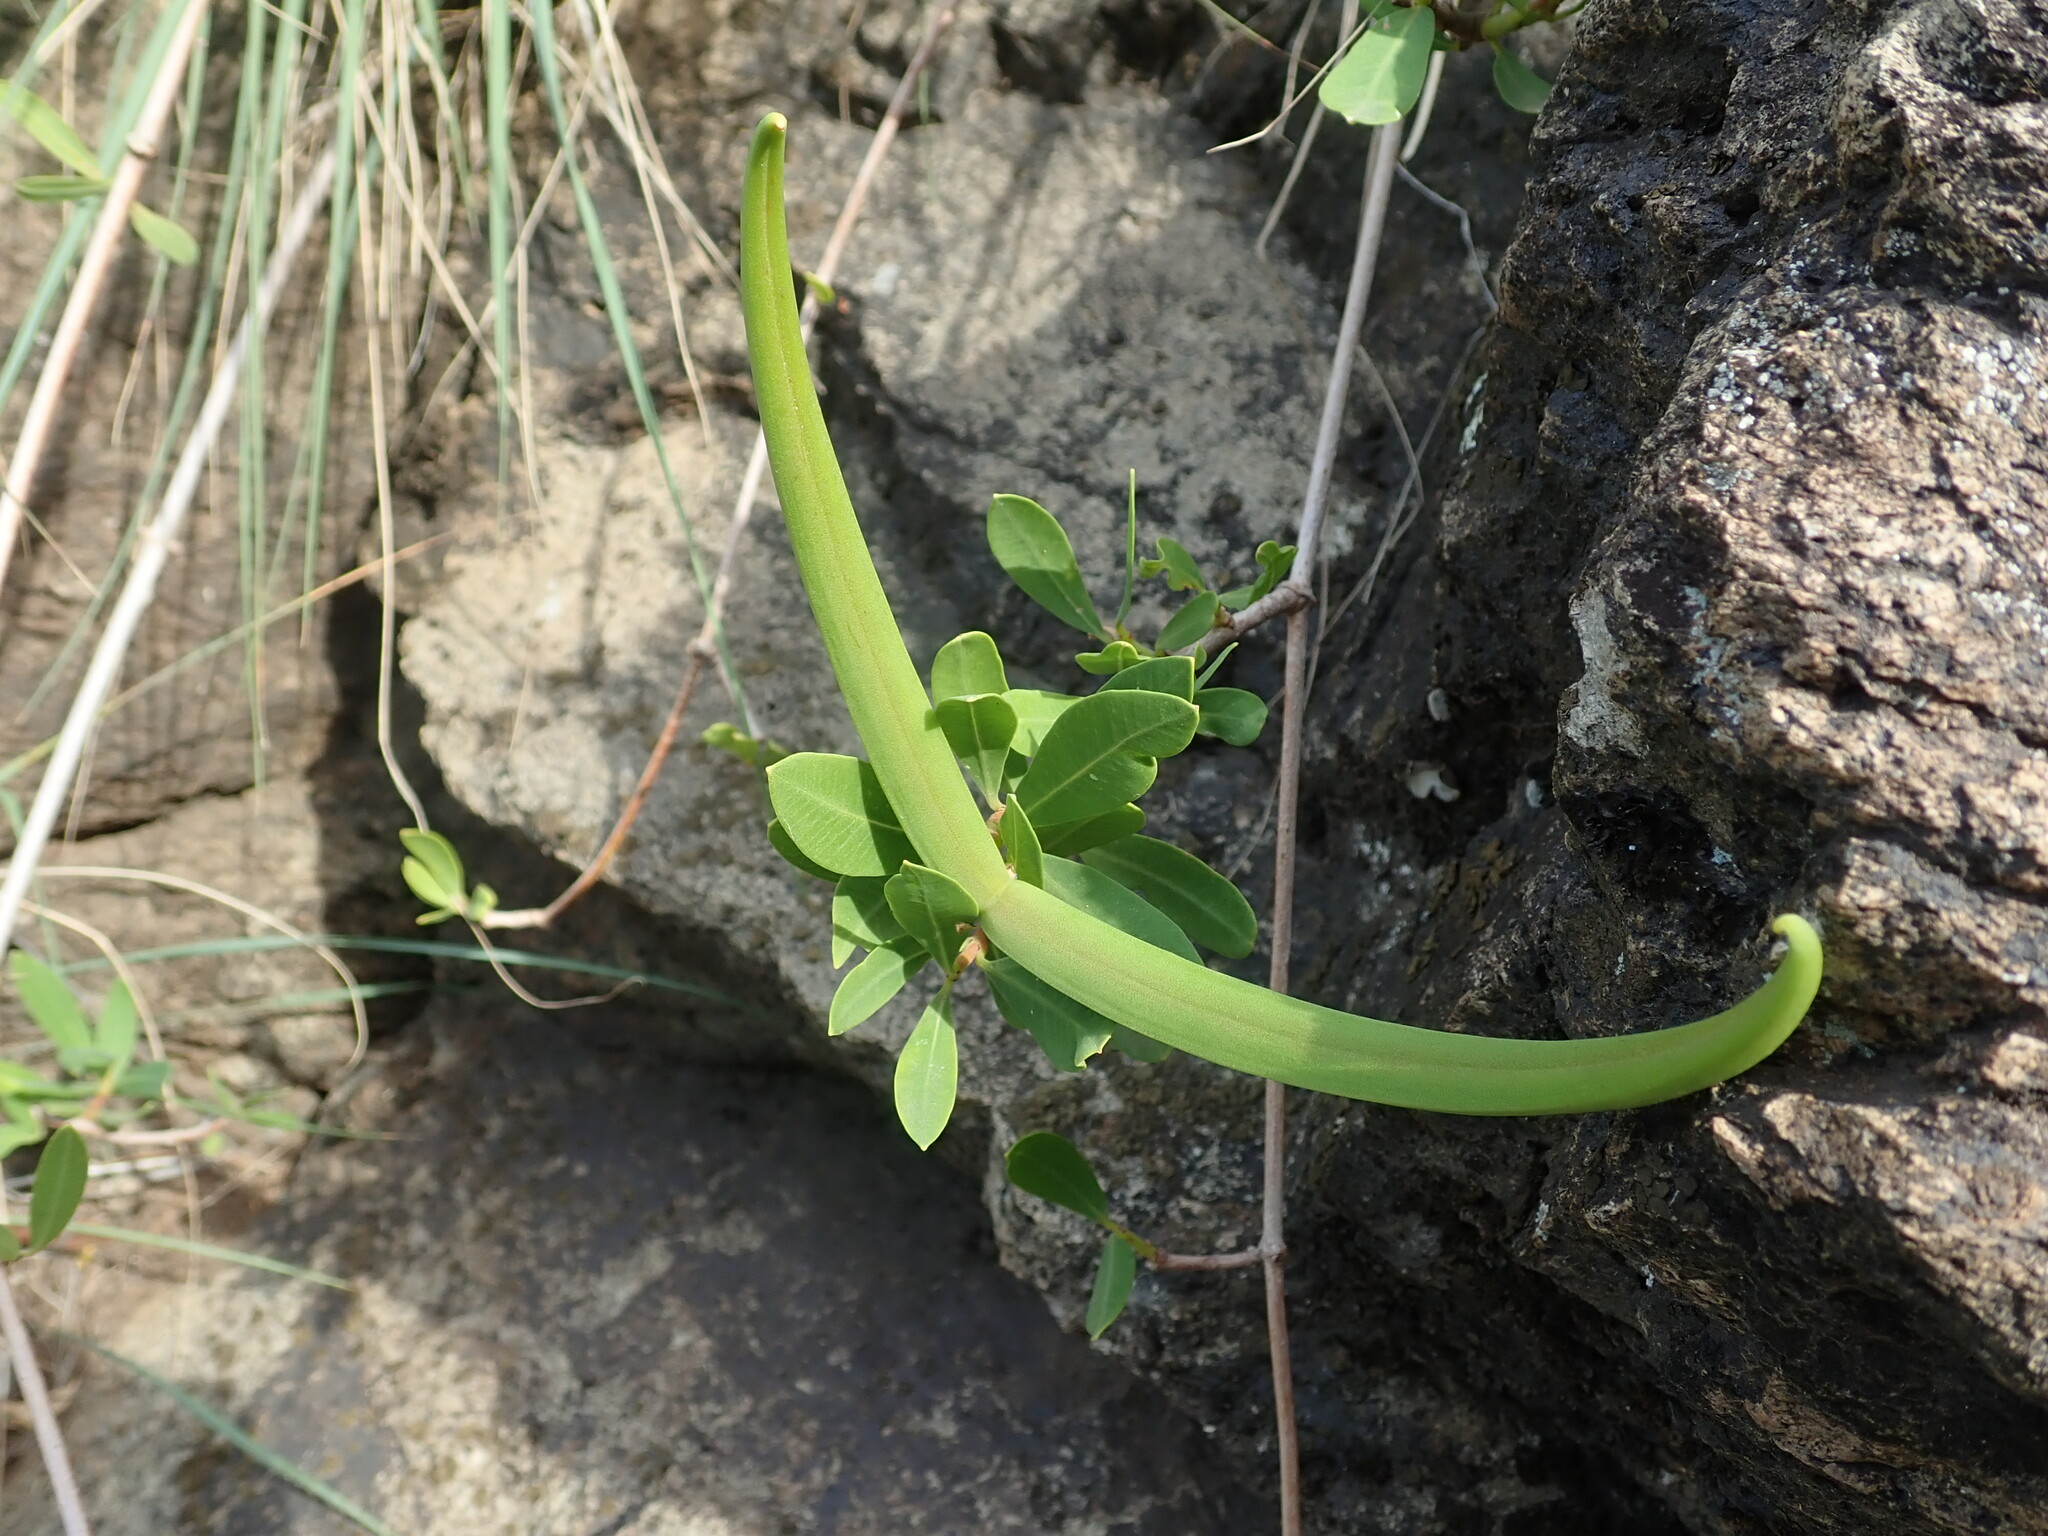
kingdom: Plantae
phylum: Tracheophyta
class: Magnoliopsida
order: Gentianales
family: Apocynaceae
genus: Periploca
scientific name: Periploca laevigata
